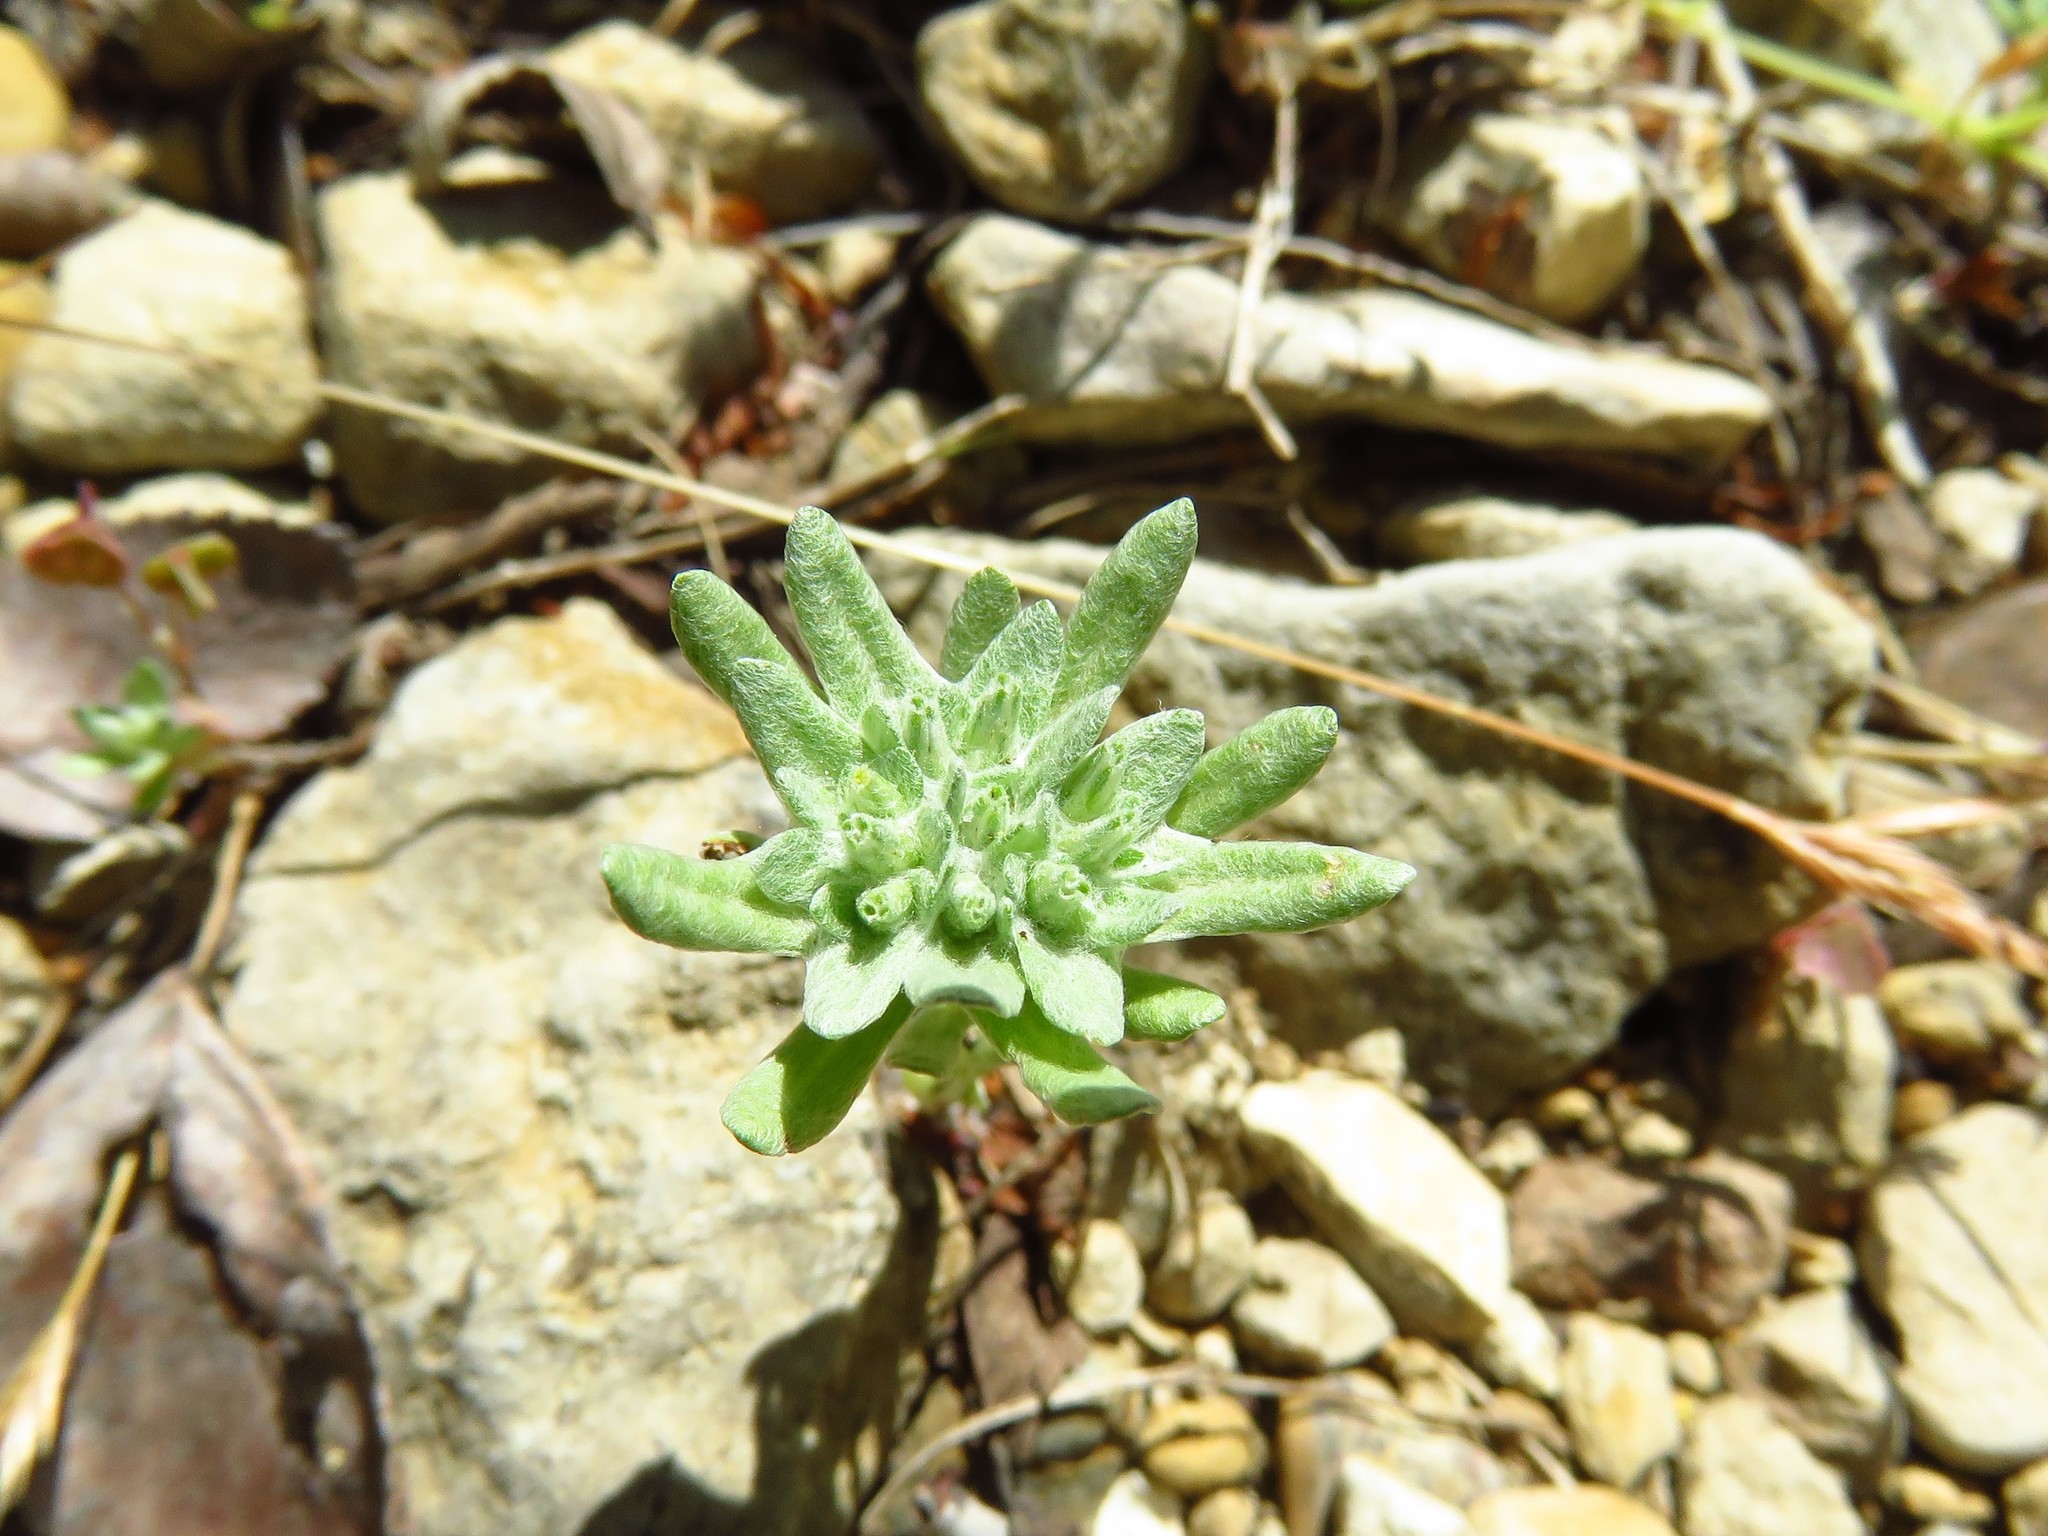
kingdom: Plantae
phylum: Tracheophyta
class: Magnoliopsida
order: Asterales
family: Asteraceae
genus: Diaperia
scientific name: Diaperia prolifera
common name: Big-head rabbit-tobacco
